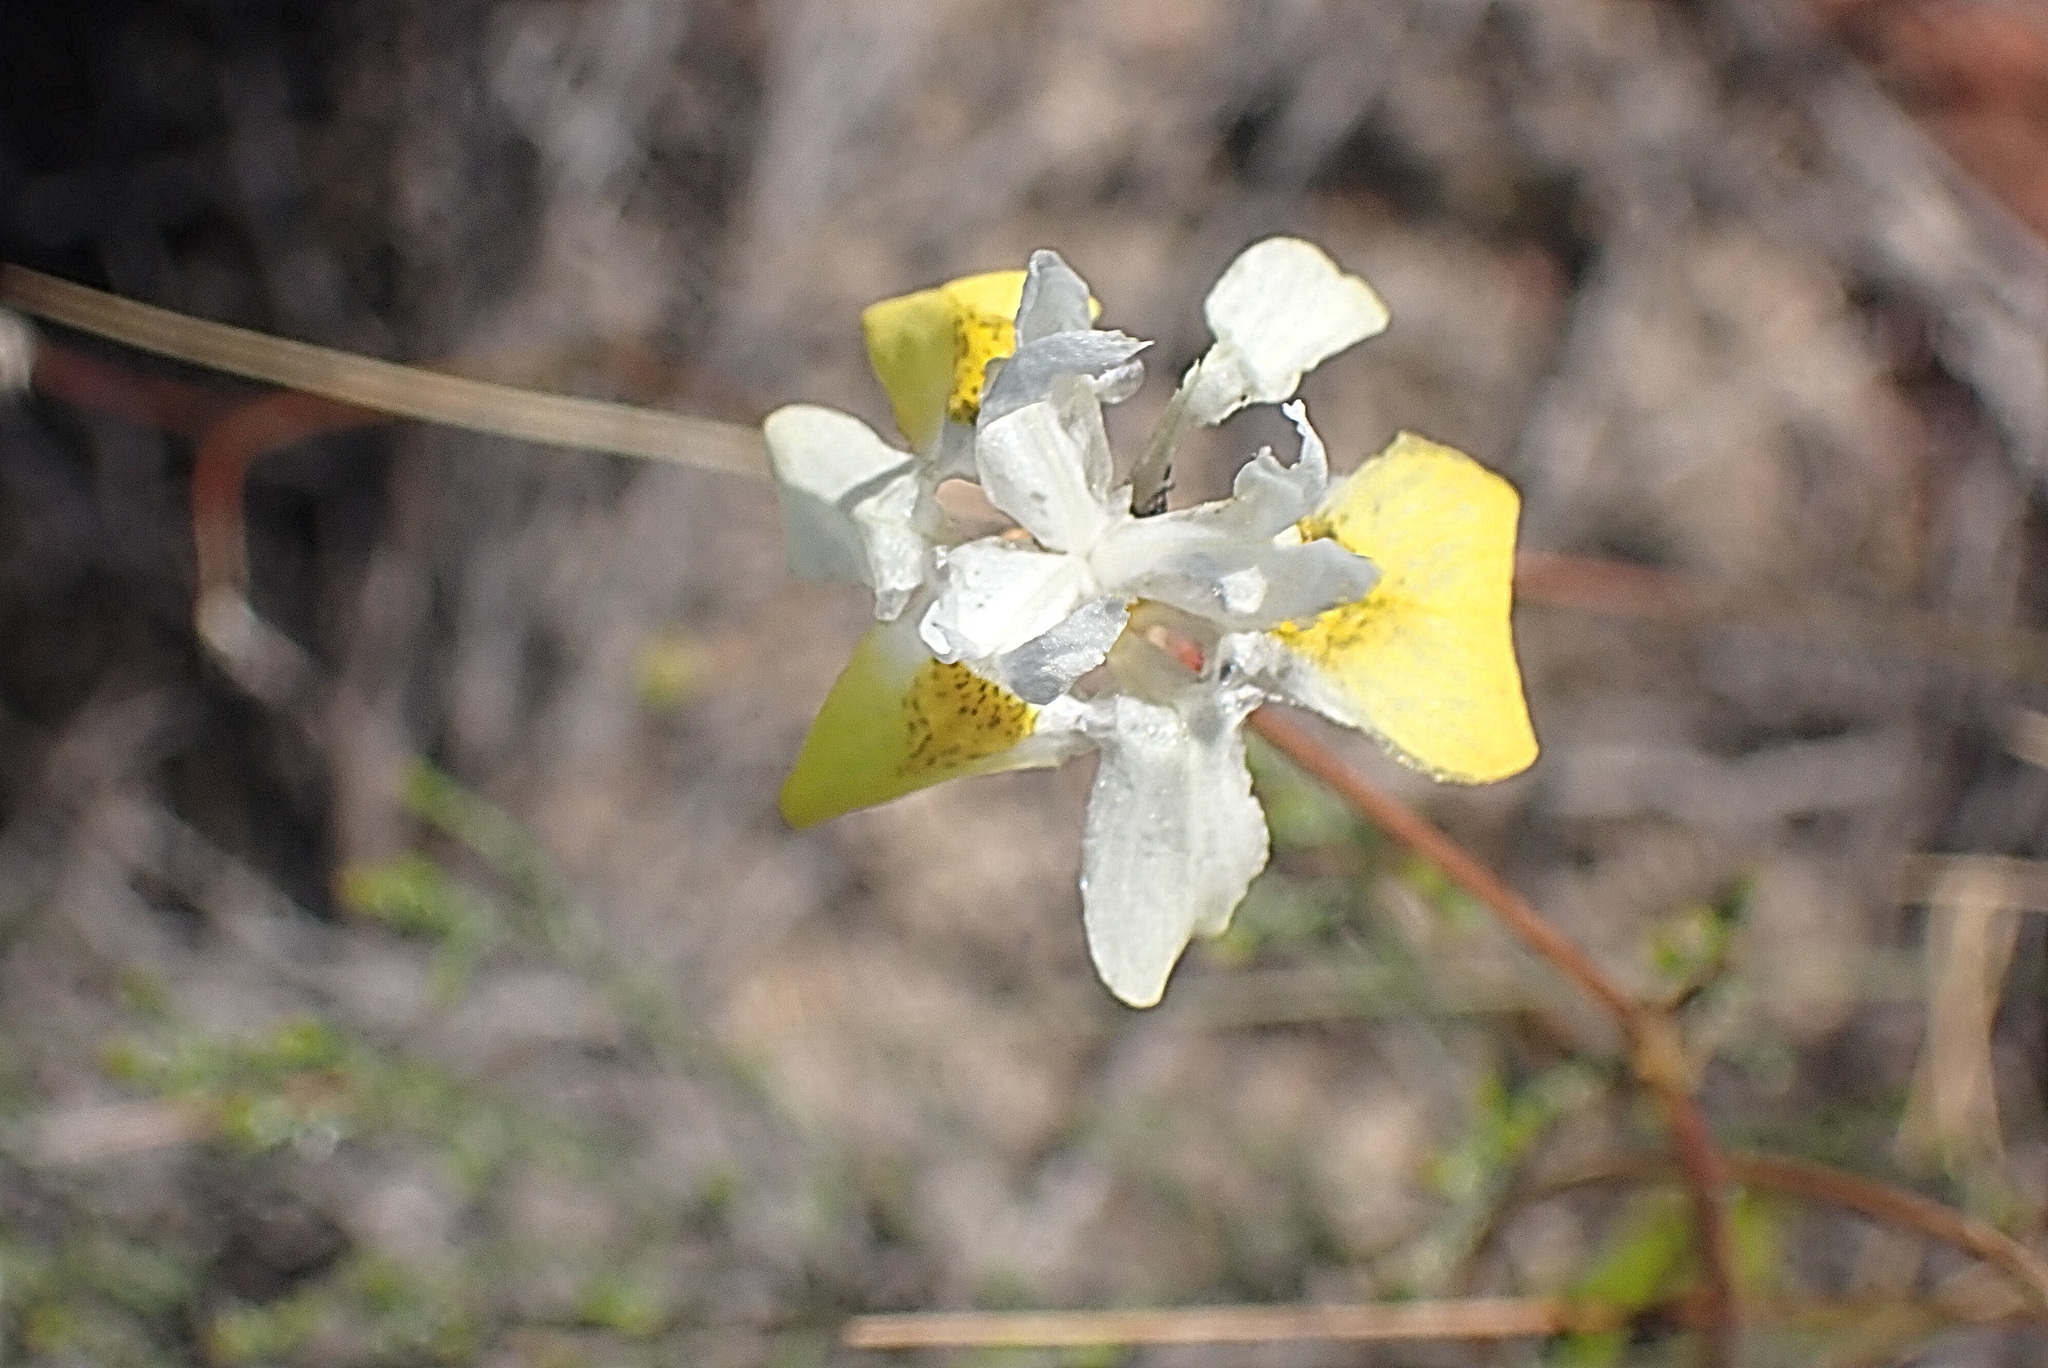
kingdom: Plantae
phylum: Tracheophyta
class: Liliopsida
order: Asparagales
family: Iridaceae
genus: Moraea
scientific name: Moraea gawleri
